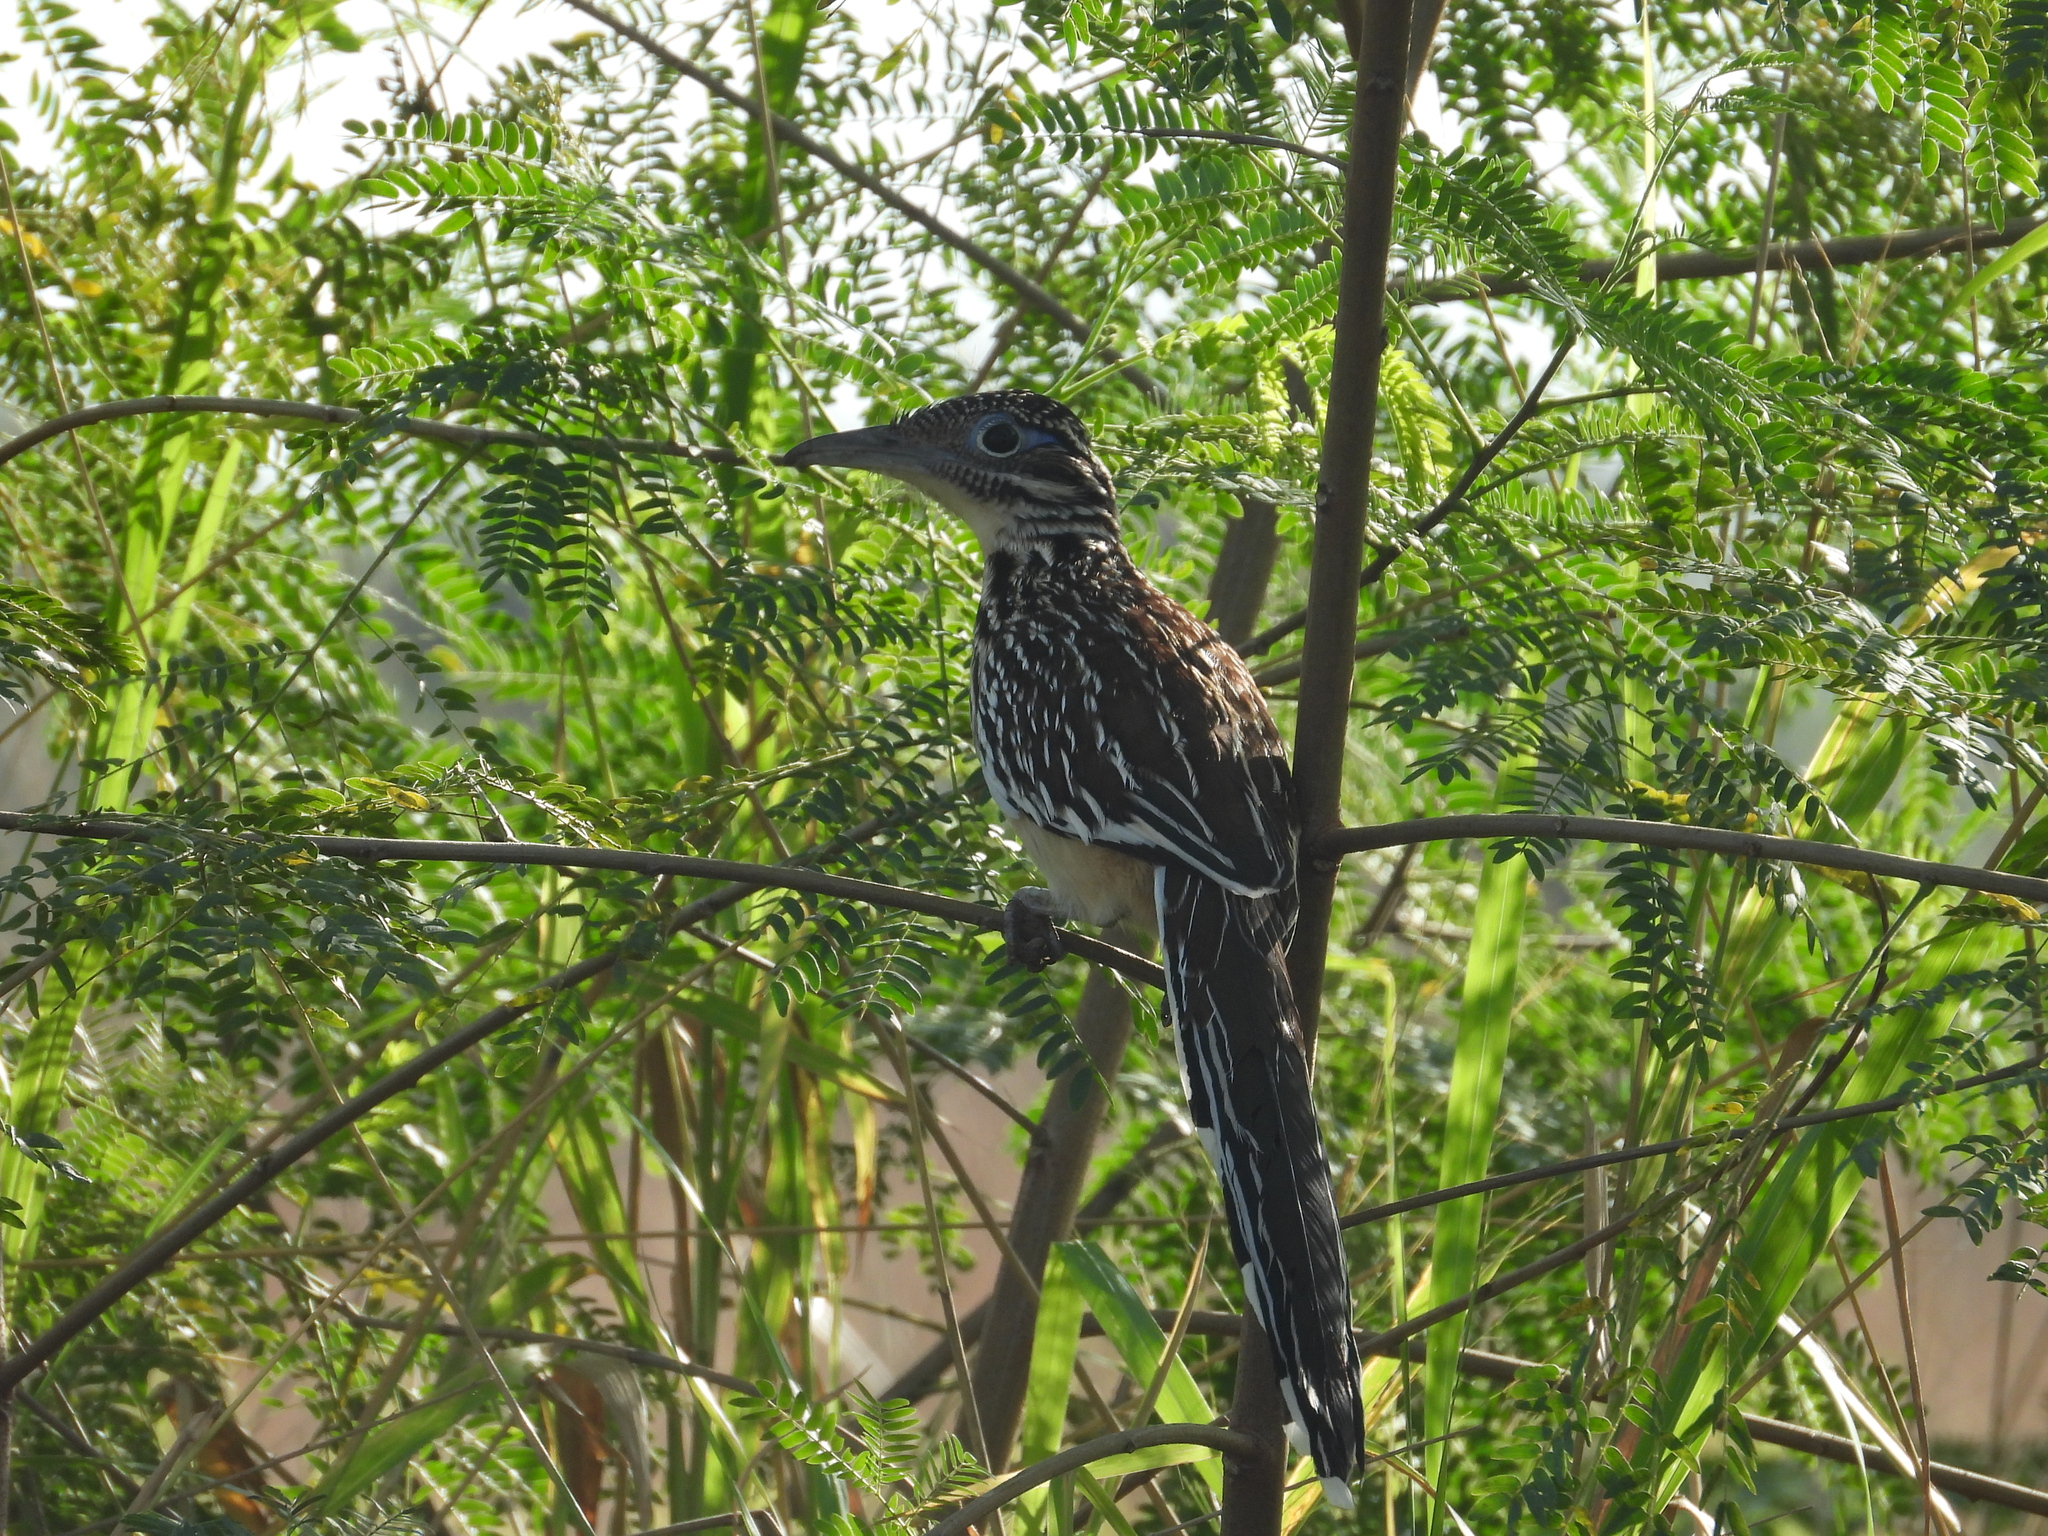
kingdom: Animalia
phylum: Chordata
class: Aves
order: Cuculiformes
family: Cuculidae
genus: Geococcyx
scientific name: Geococcyx velox
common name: Lesser roadrunner
